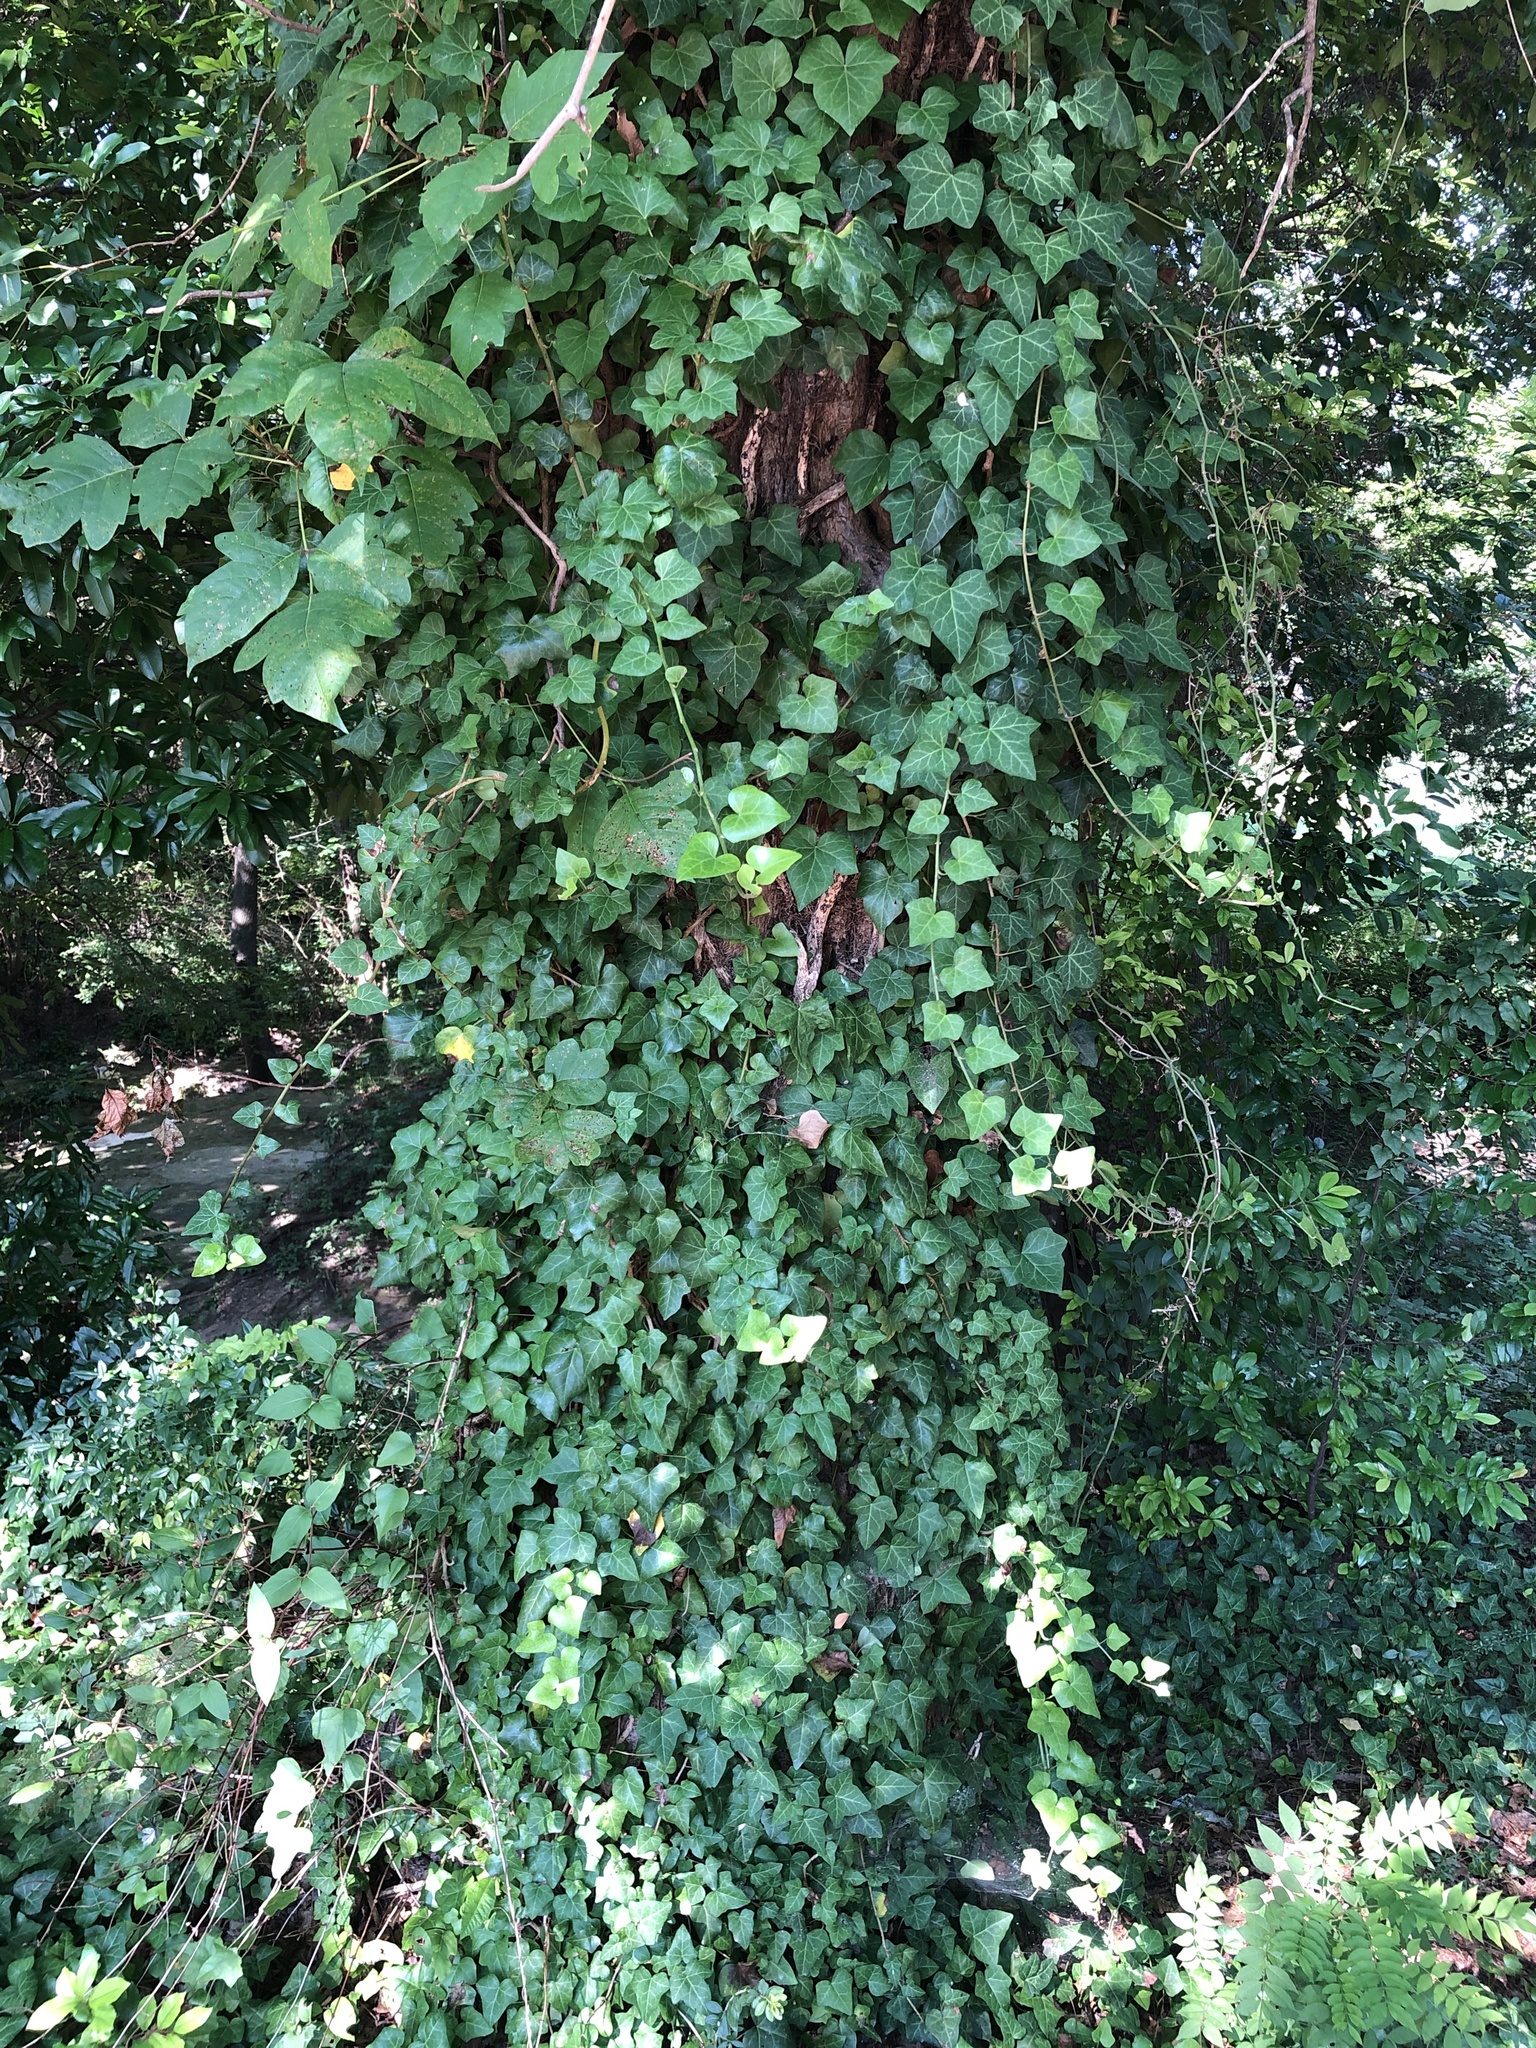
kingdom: Plantae
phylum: Tracheophyta
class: Magnoliopsida
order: Apiales
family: Araliaceae
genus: Hedera
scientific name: Hedera helix
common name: Ivy
